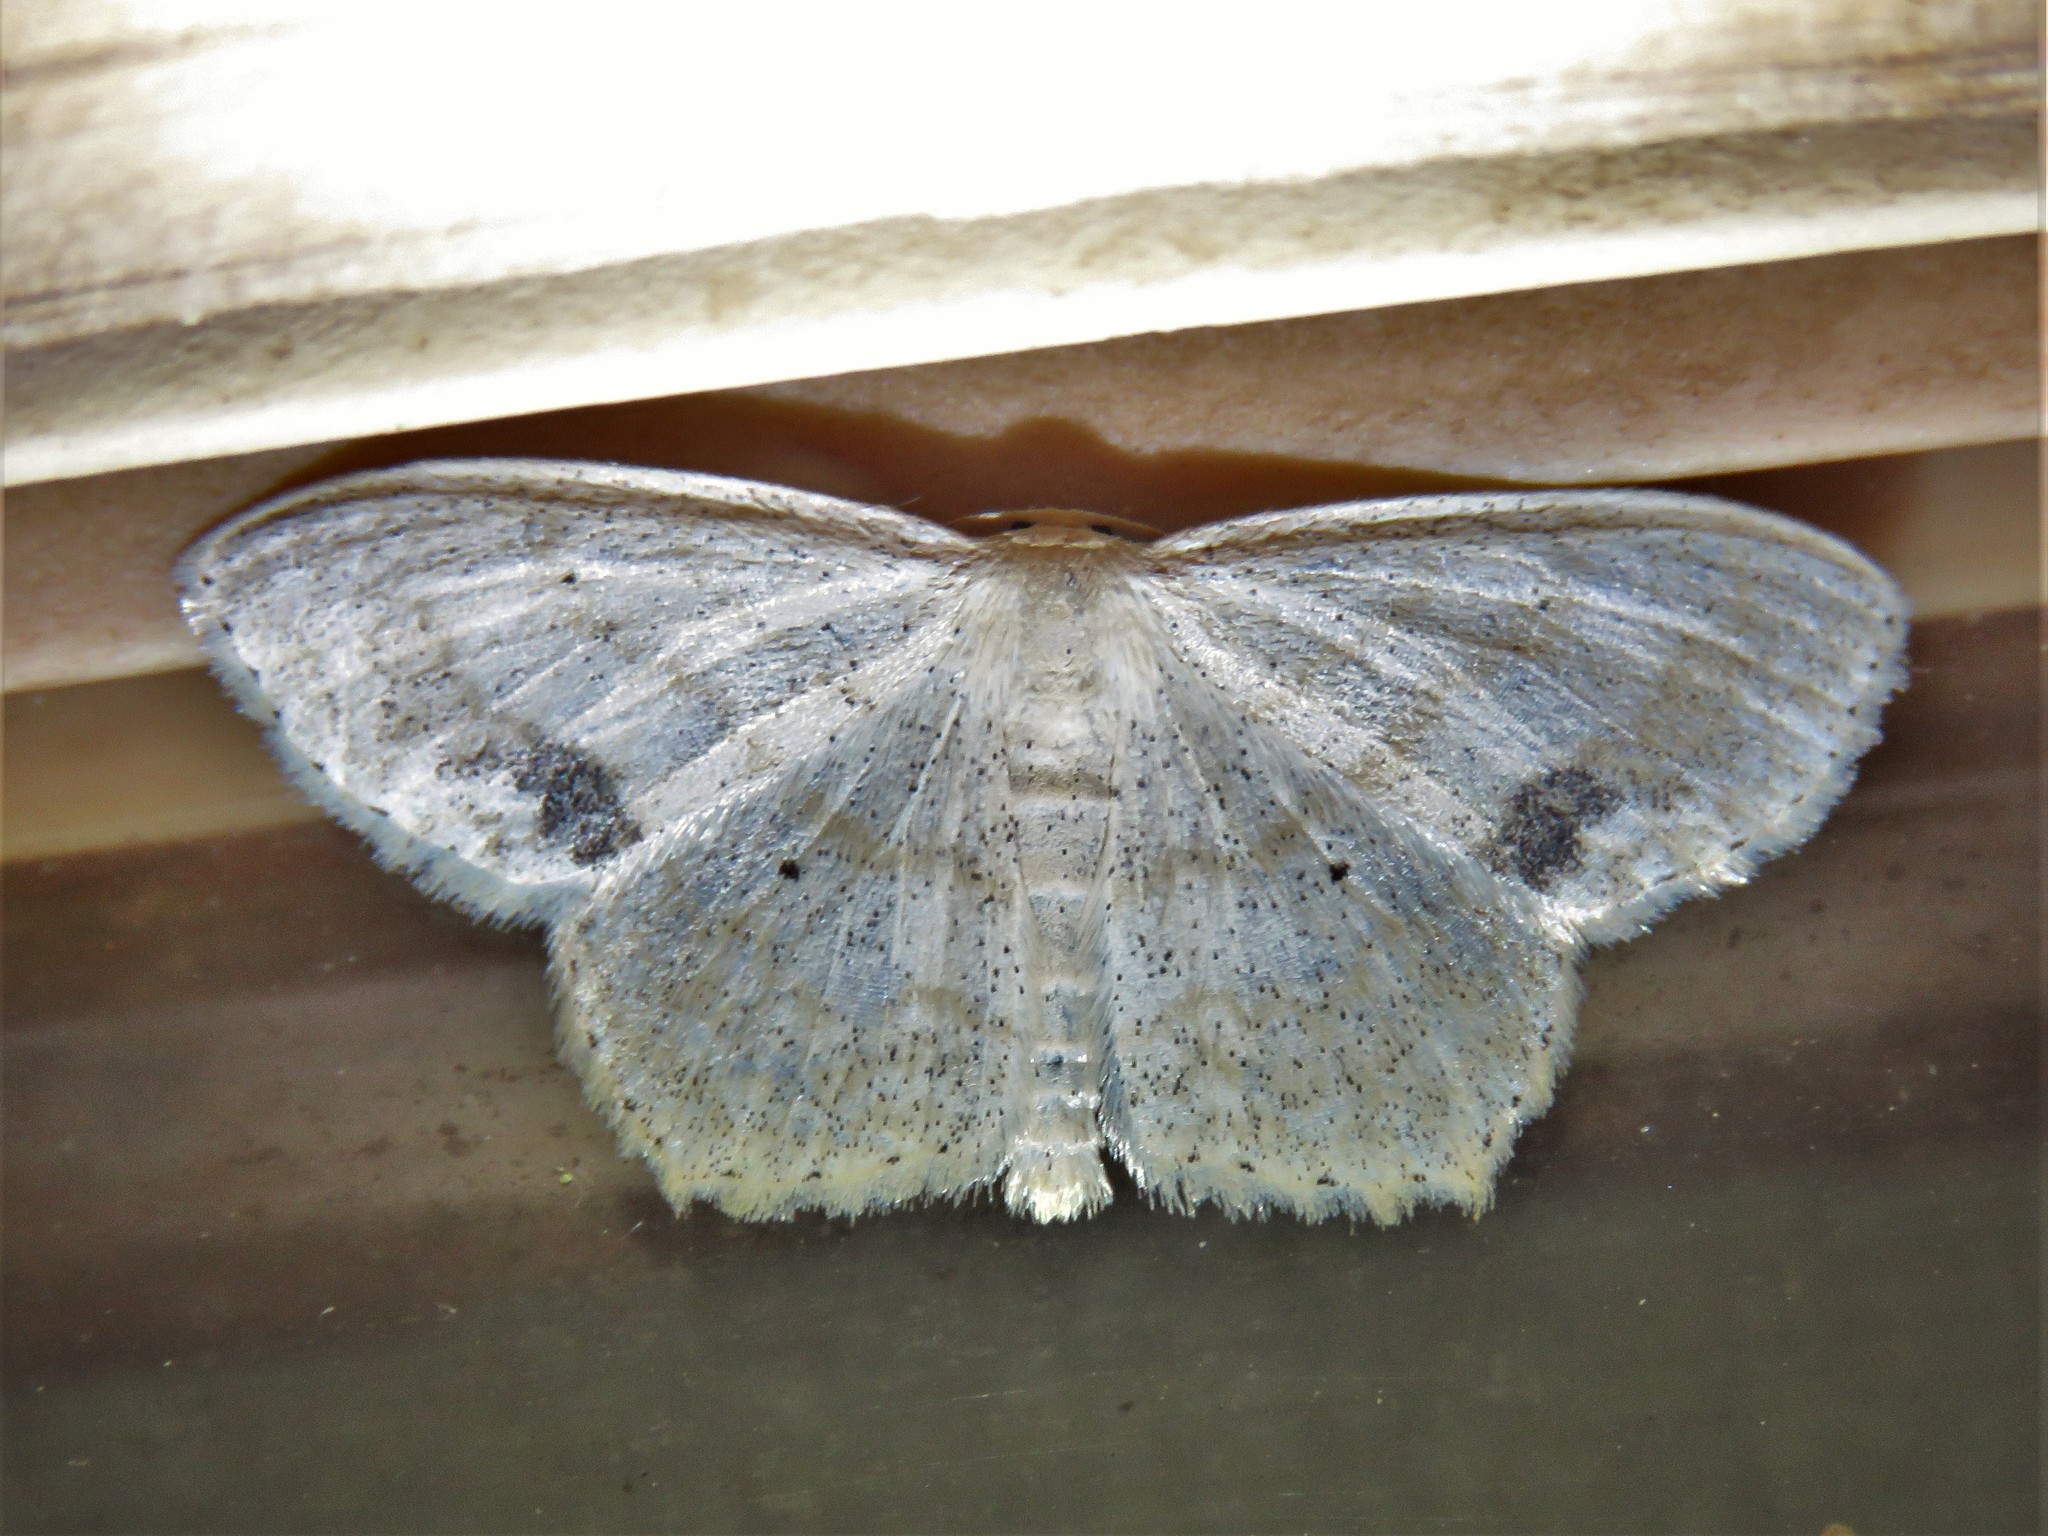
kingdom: Animalia
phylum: Arthropoda
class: Insecta
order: Lepidoptera
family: Geometridae
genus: Scopula
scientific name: Scopula compensata
